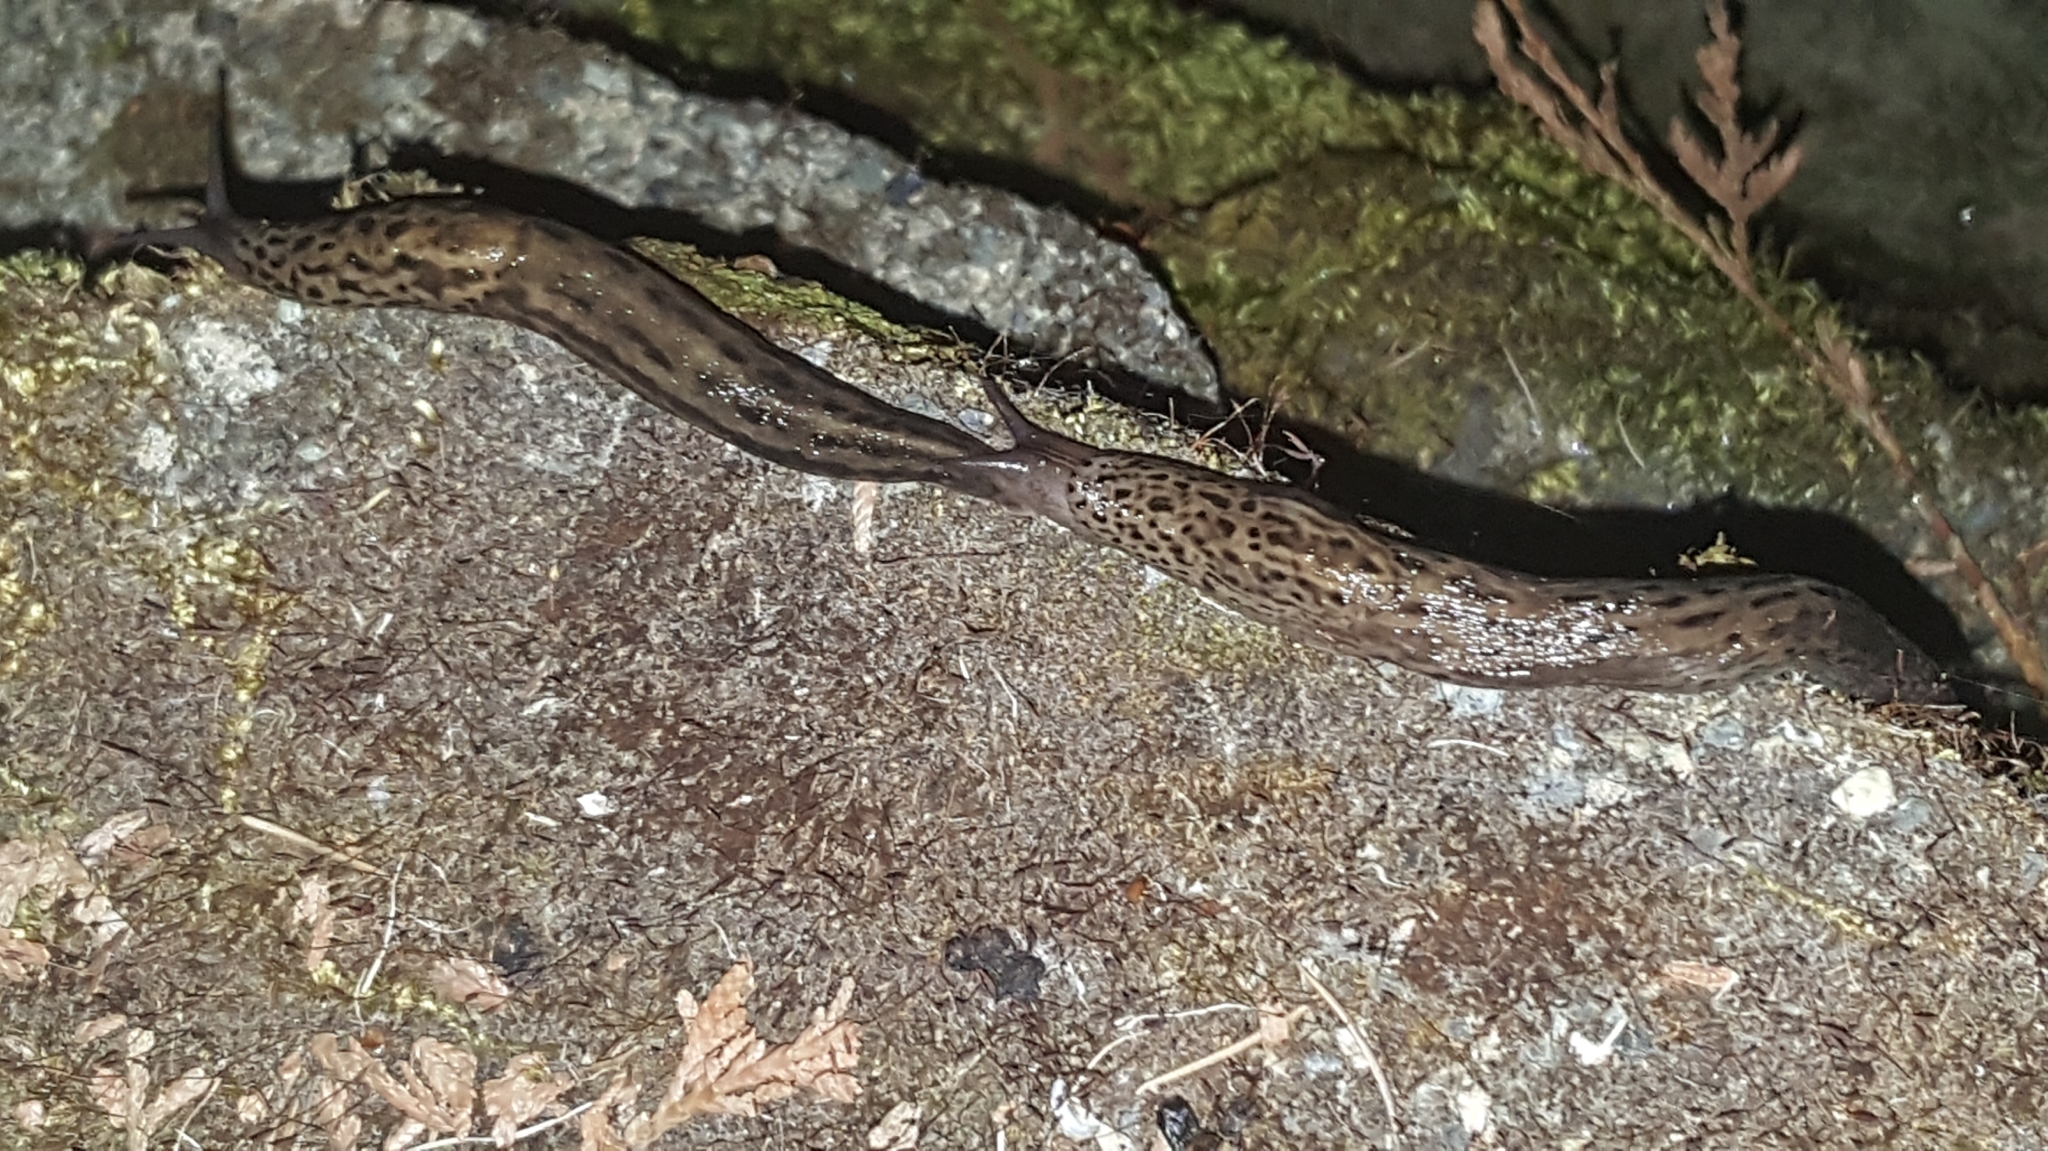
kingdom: Animalia
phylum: Mollusca
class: Gastropoda
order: Stylommatophora
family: Limacidae
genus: Limax
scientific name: Limax maximus
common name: Great grey slug
